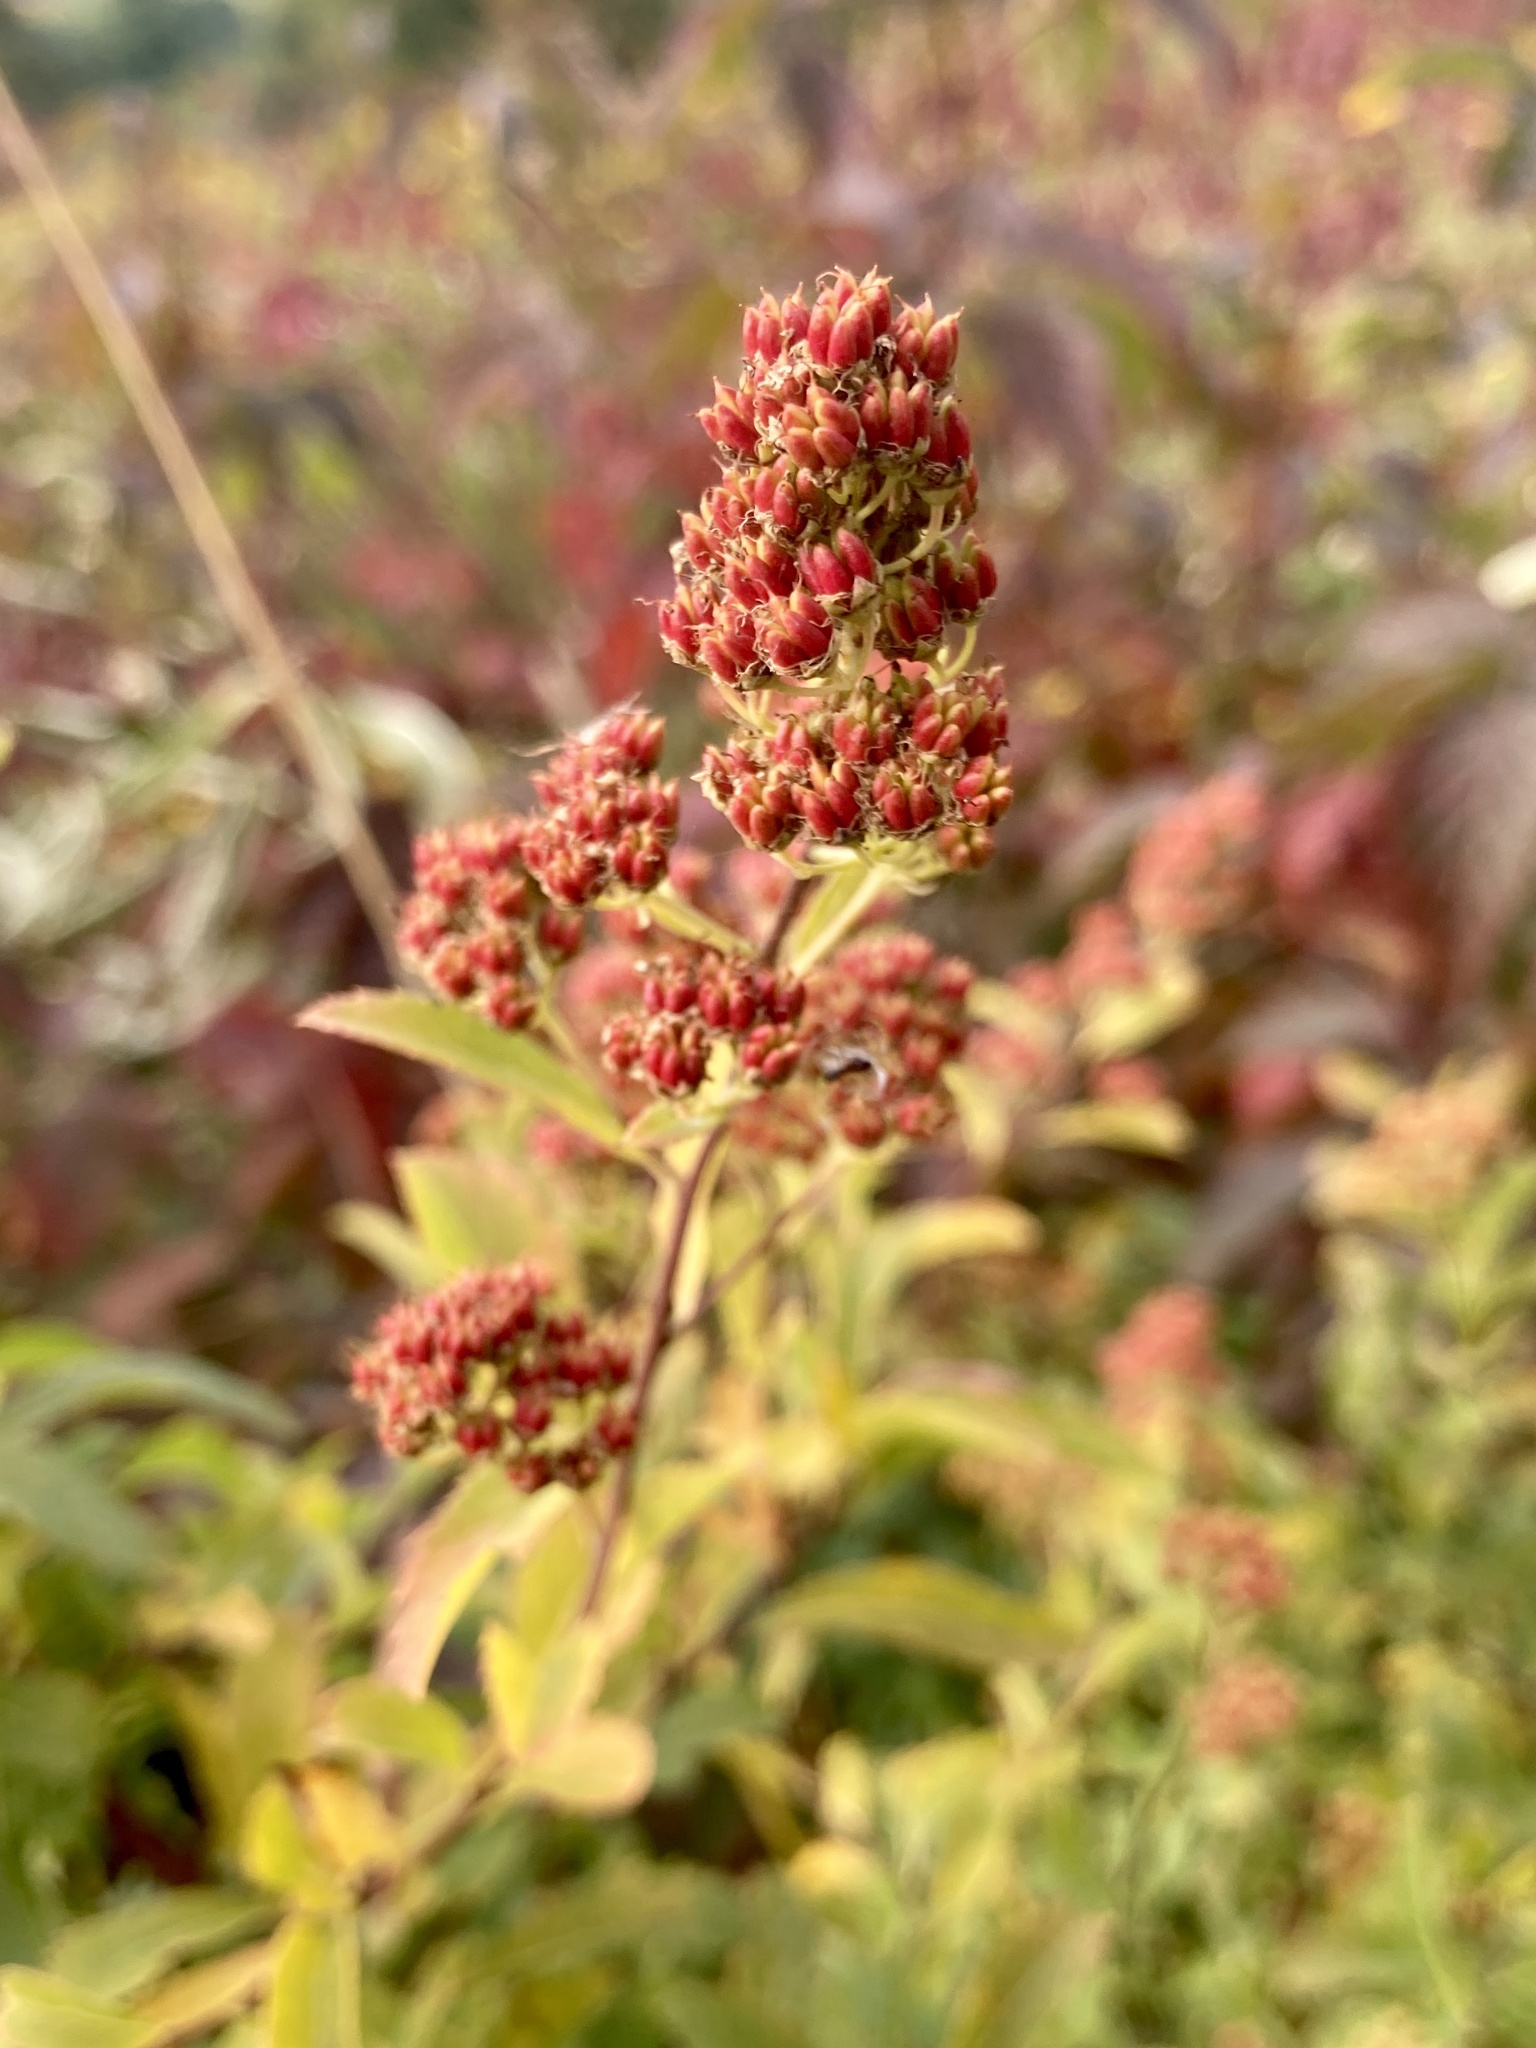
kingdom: Plantae
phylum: Tracheophyta
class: Magnoliopsida
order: Rosales
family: Rosaceae
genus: Spiraea
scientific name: Spiraea alba
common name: Pale bridewort
